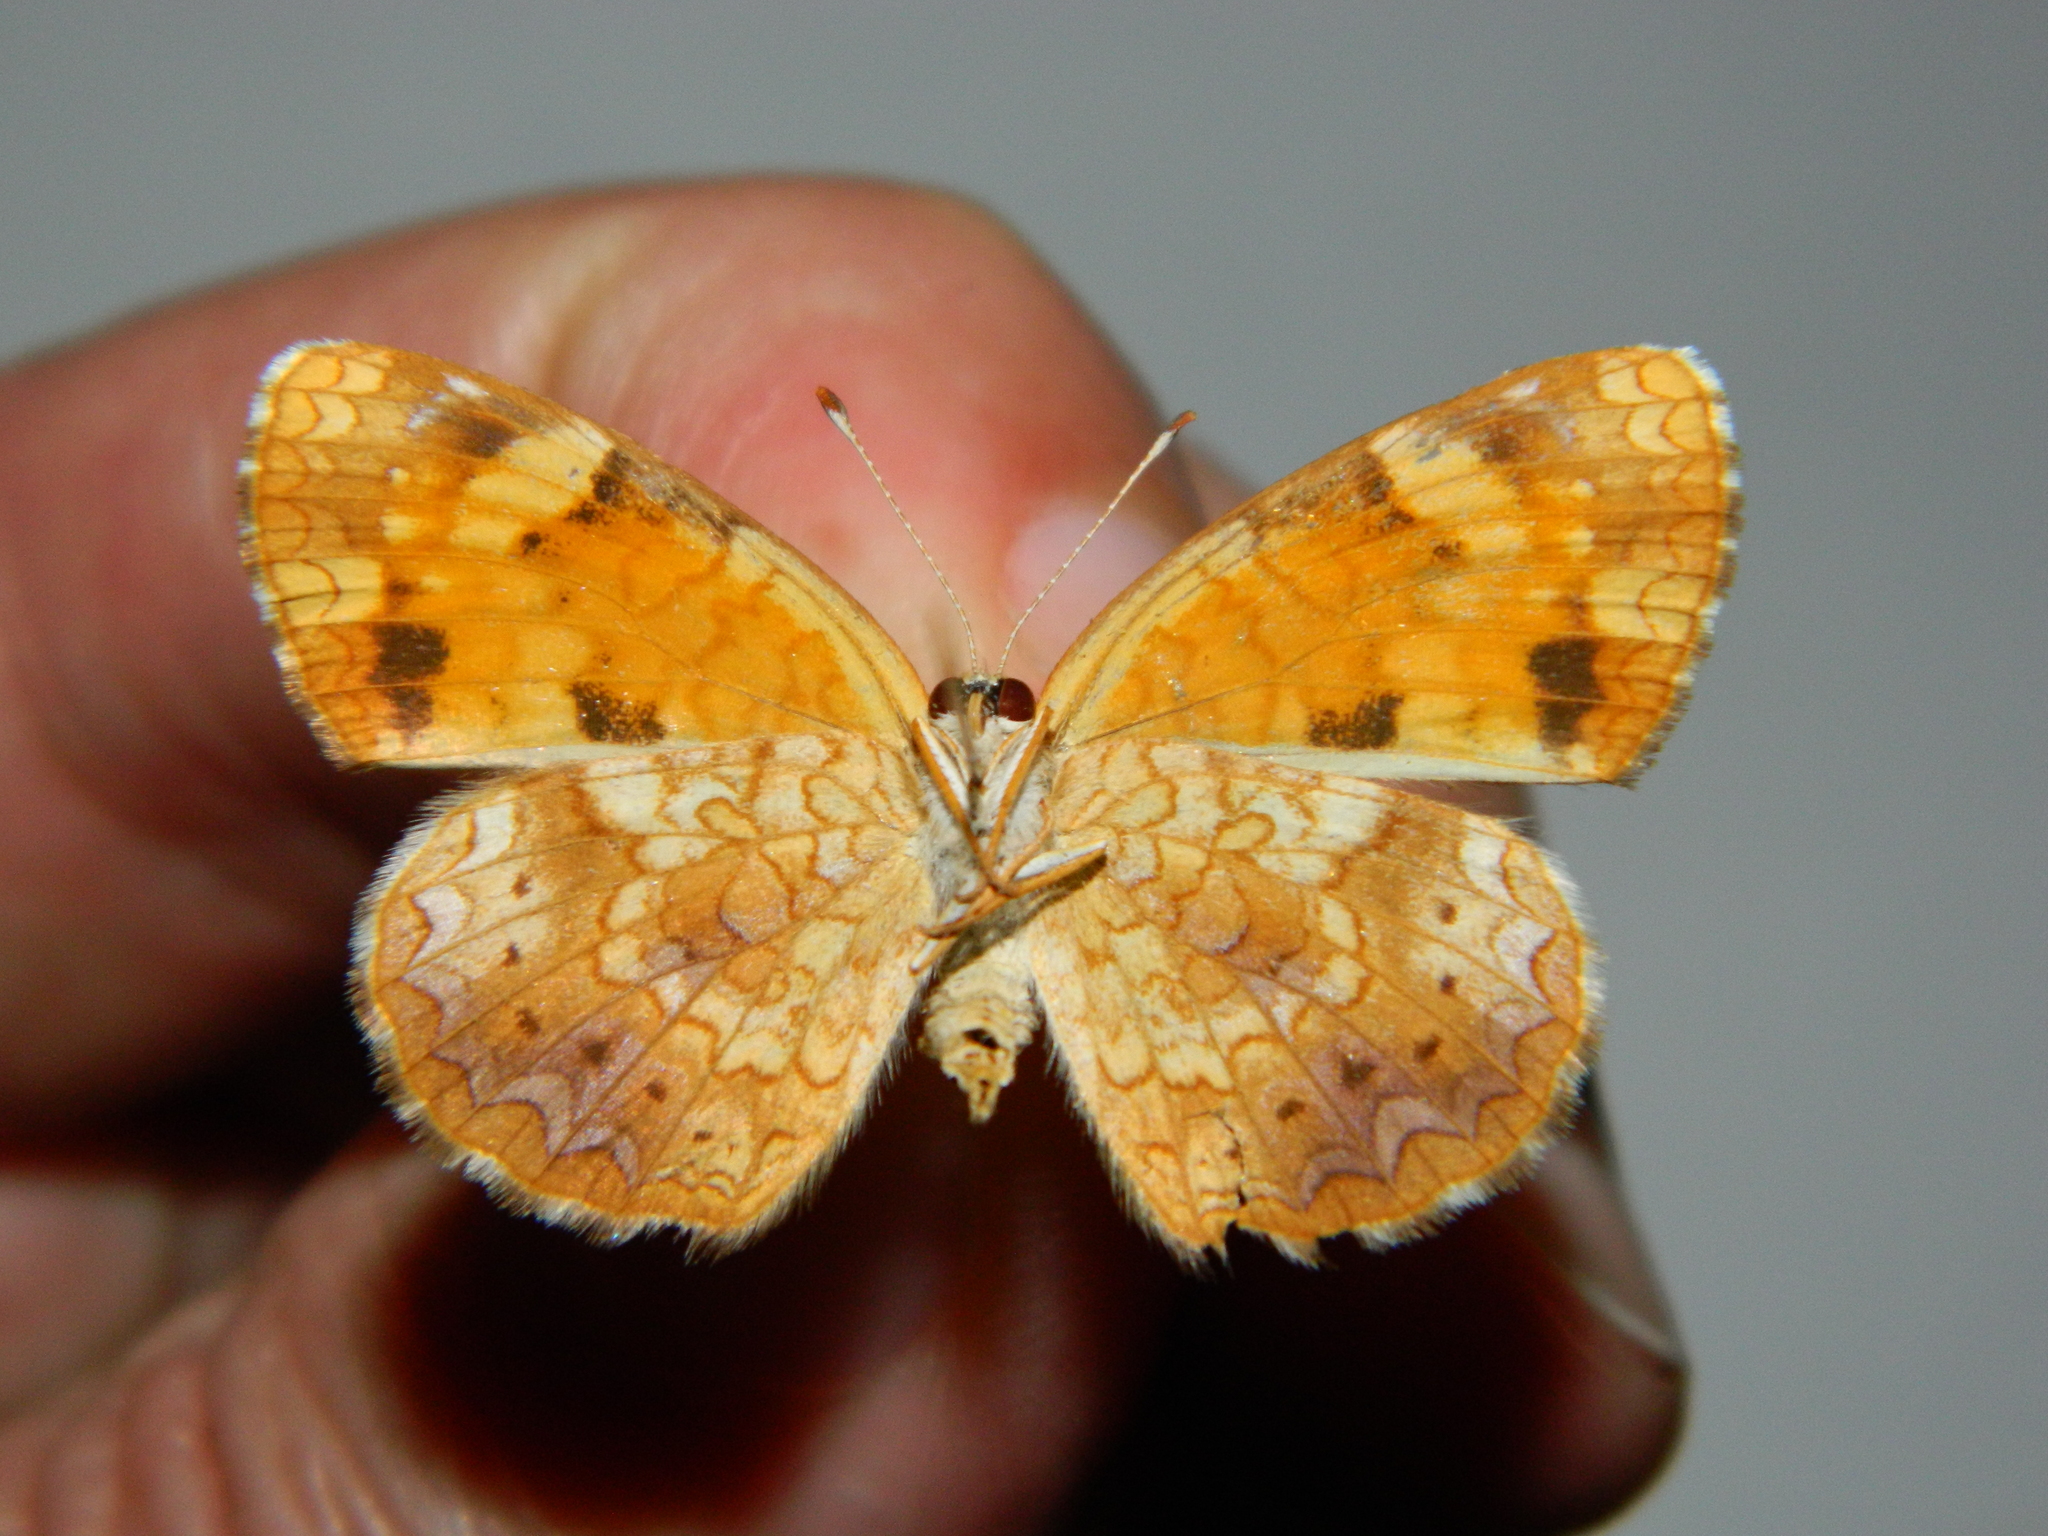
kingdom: Animalia
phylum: Arthropoda
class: Insecta
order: Lepidoptera
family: Nymphalidae
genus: Phyciodes
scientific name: Phyciodes tharos
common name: Pearl crescent
